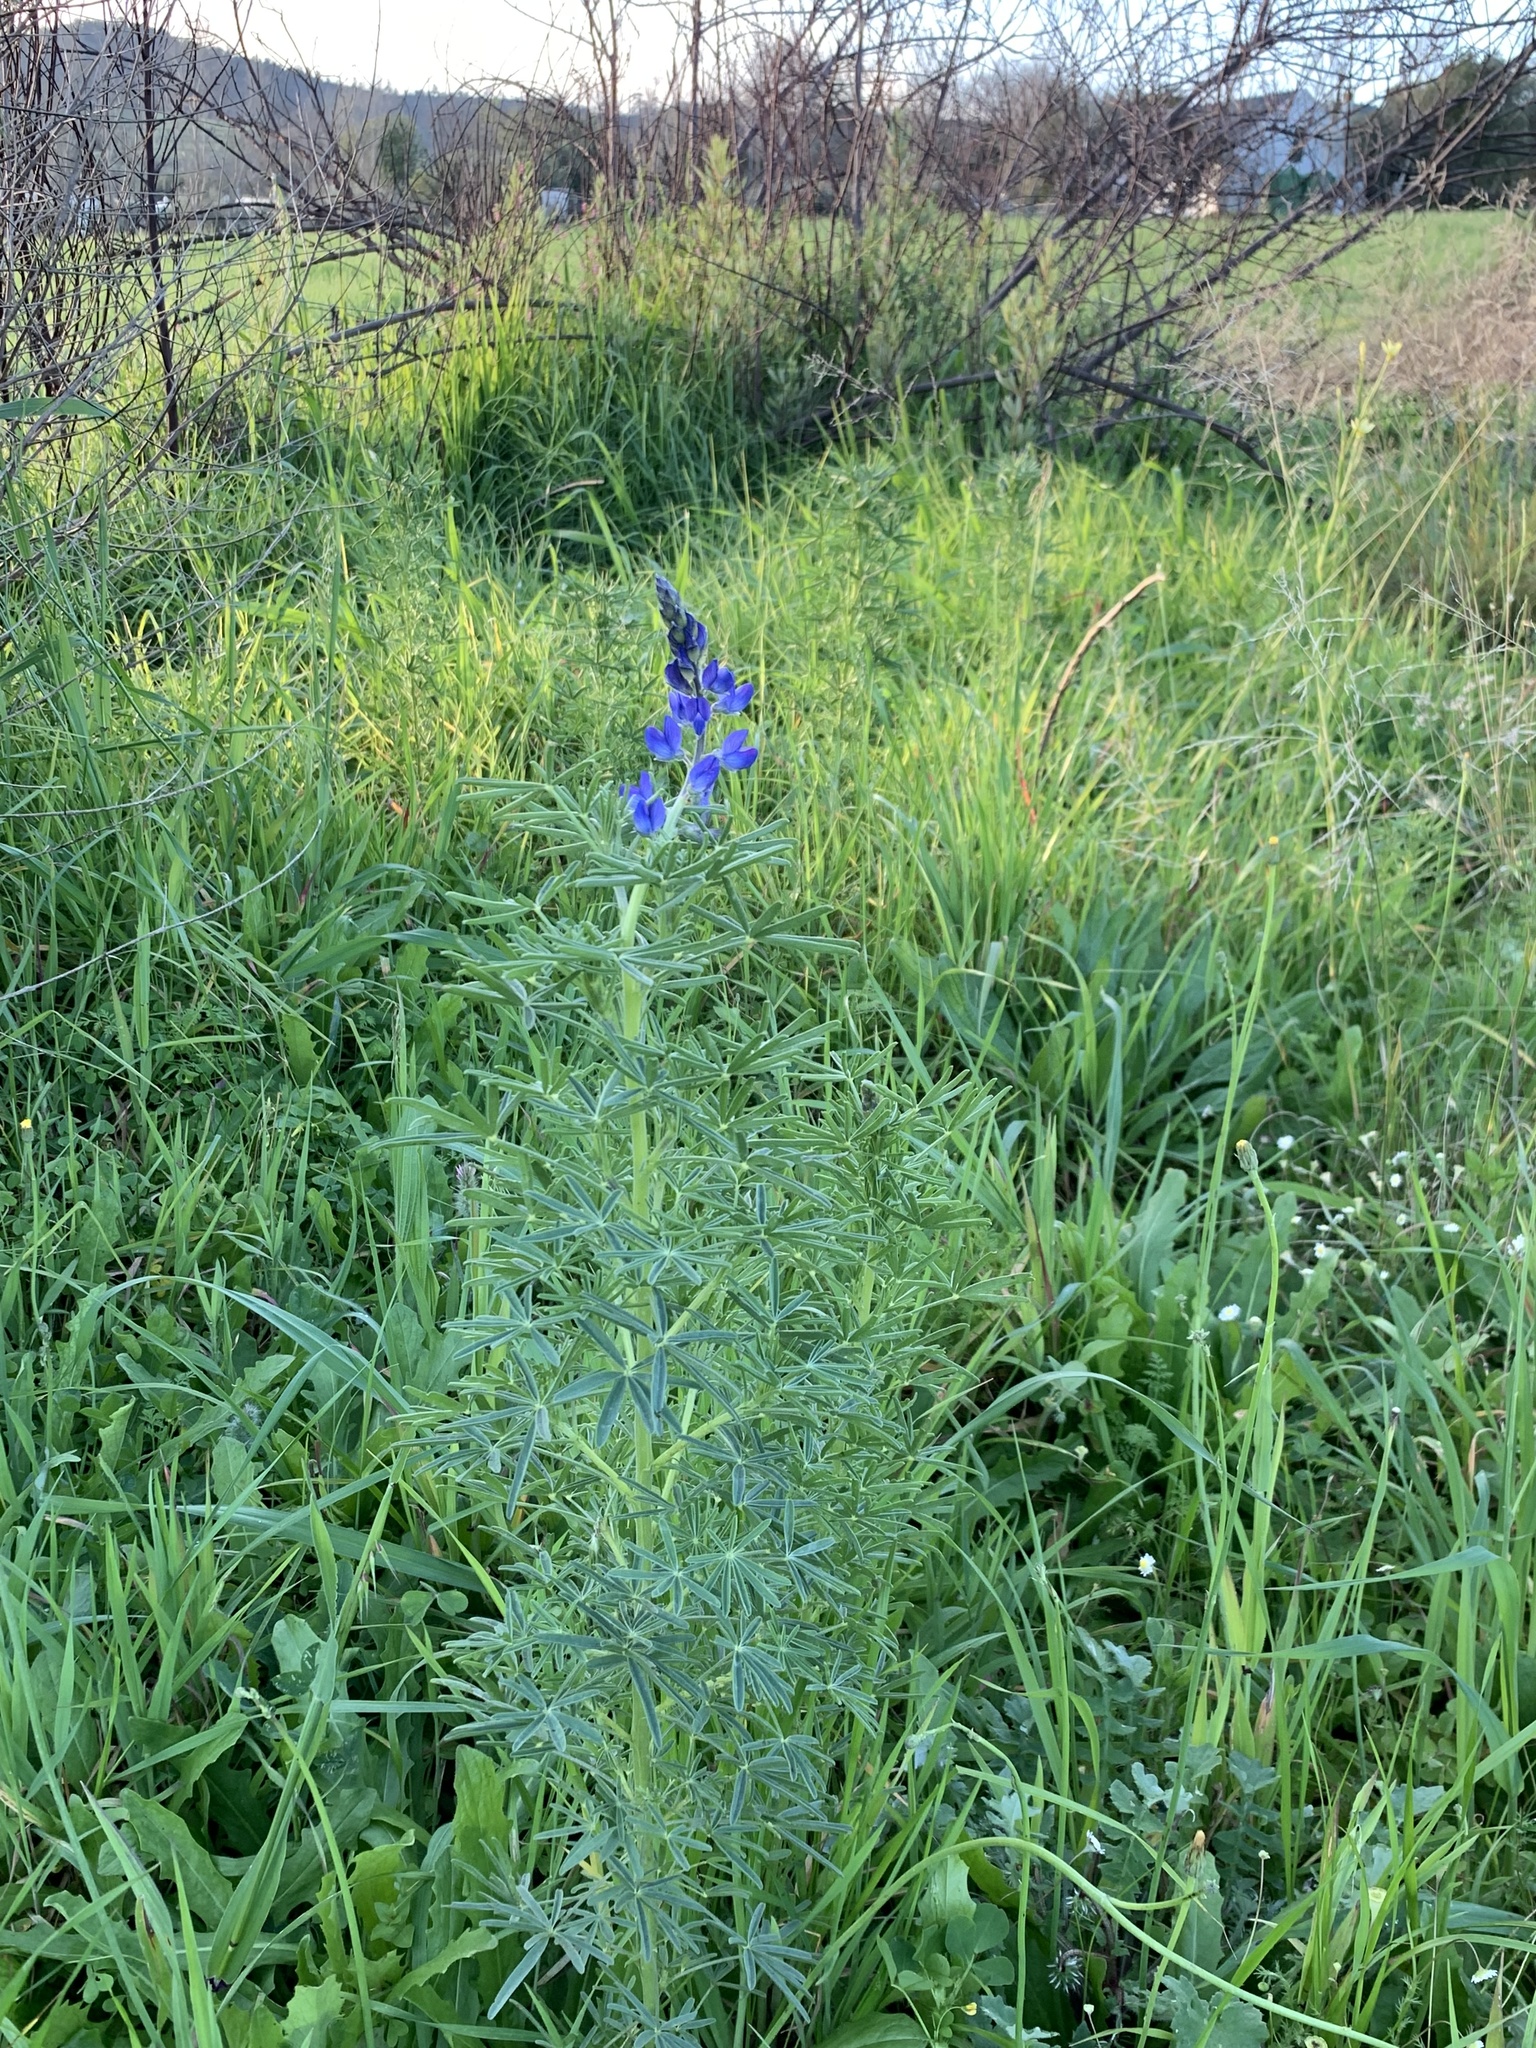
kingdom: Plantae
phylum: Tracheophyta
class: Magnoliopsida
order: Fabales
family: Fabaceae
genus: Lupinus
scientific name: Lupinus angustifolius
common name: Narrow-leaved lupin
